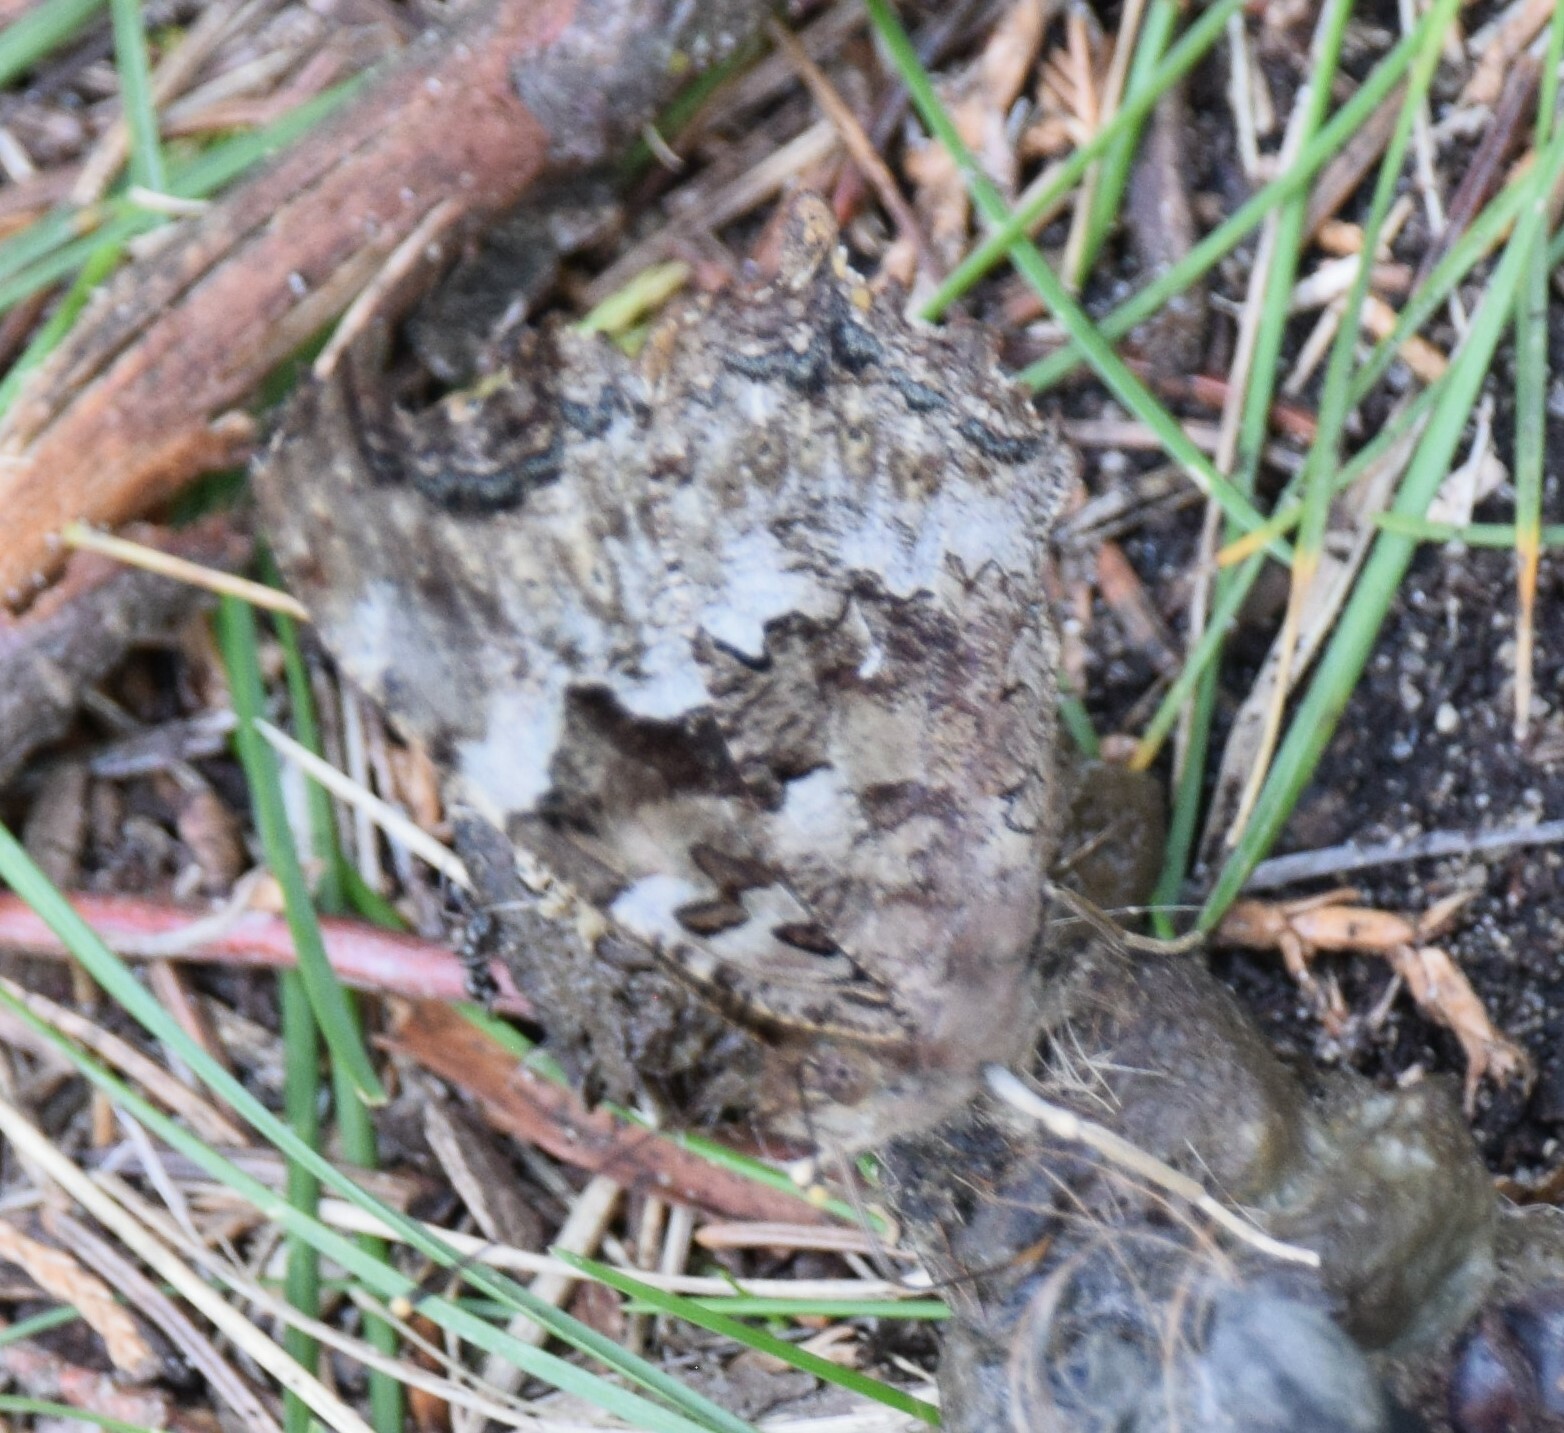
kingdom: Animalia
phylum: Arthropoda
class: Insecta
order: Lepidoptera
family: Nymphalidae
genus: Polygonia
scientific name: Polygonia vaualbum
